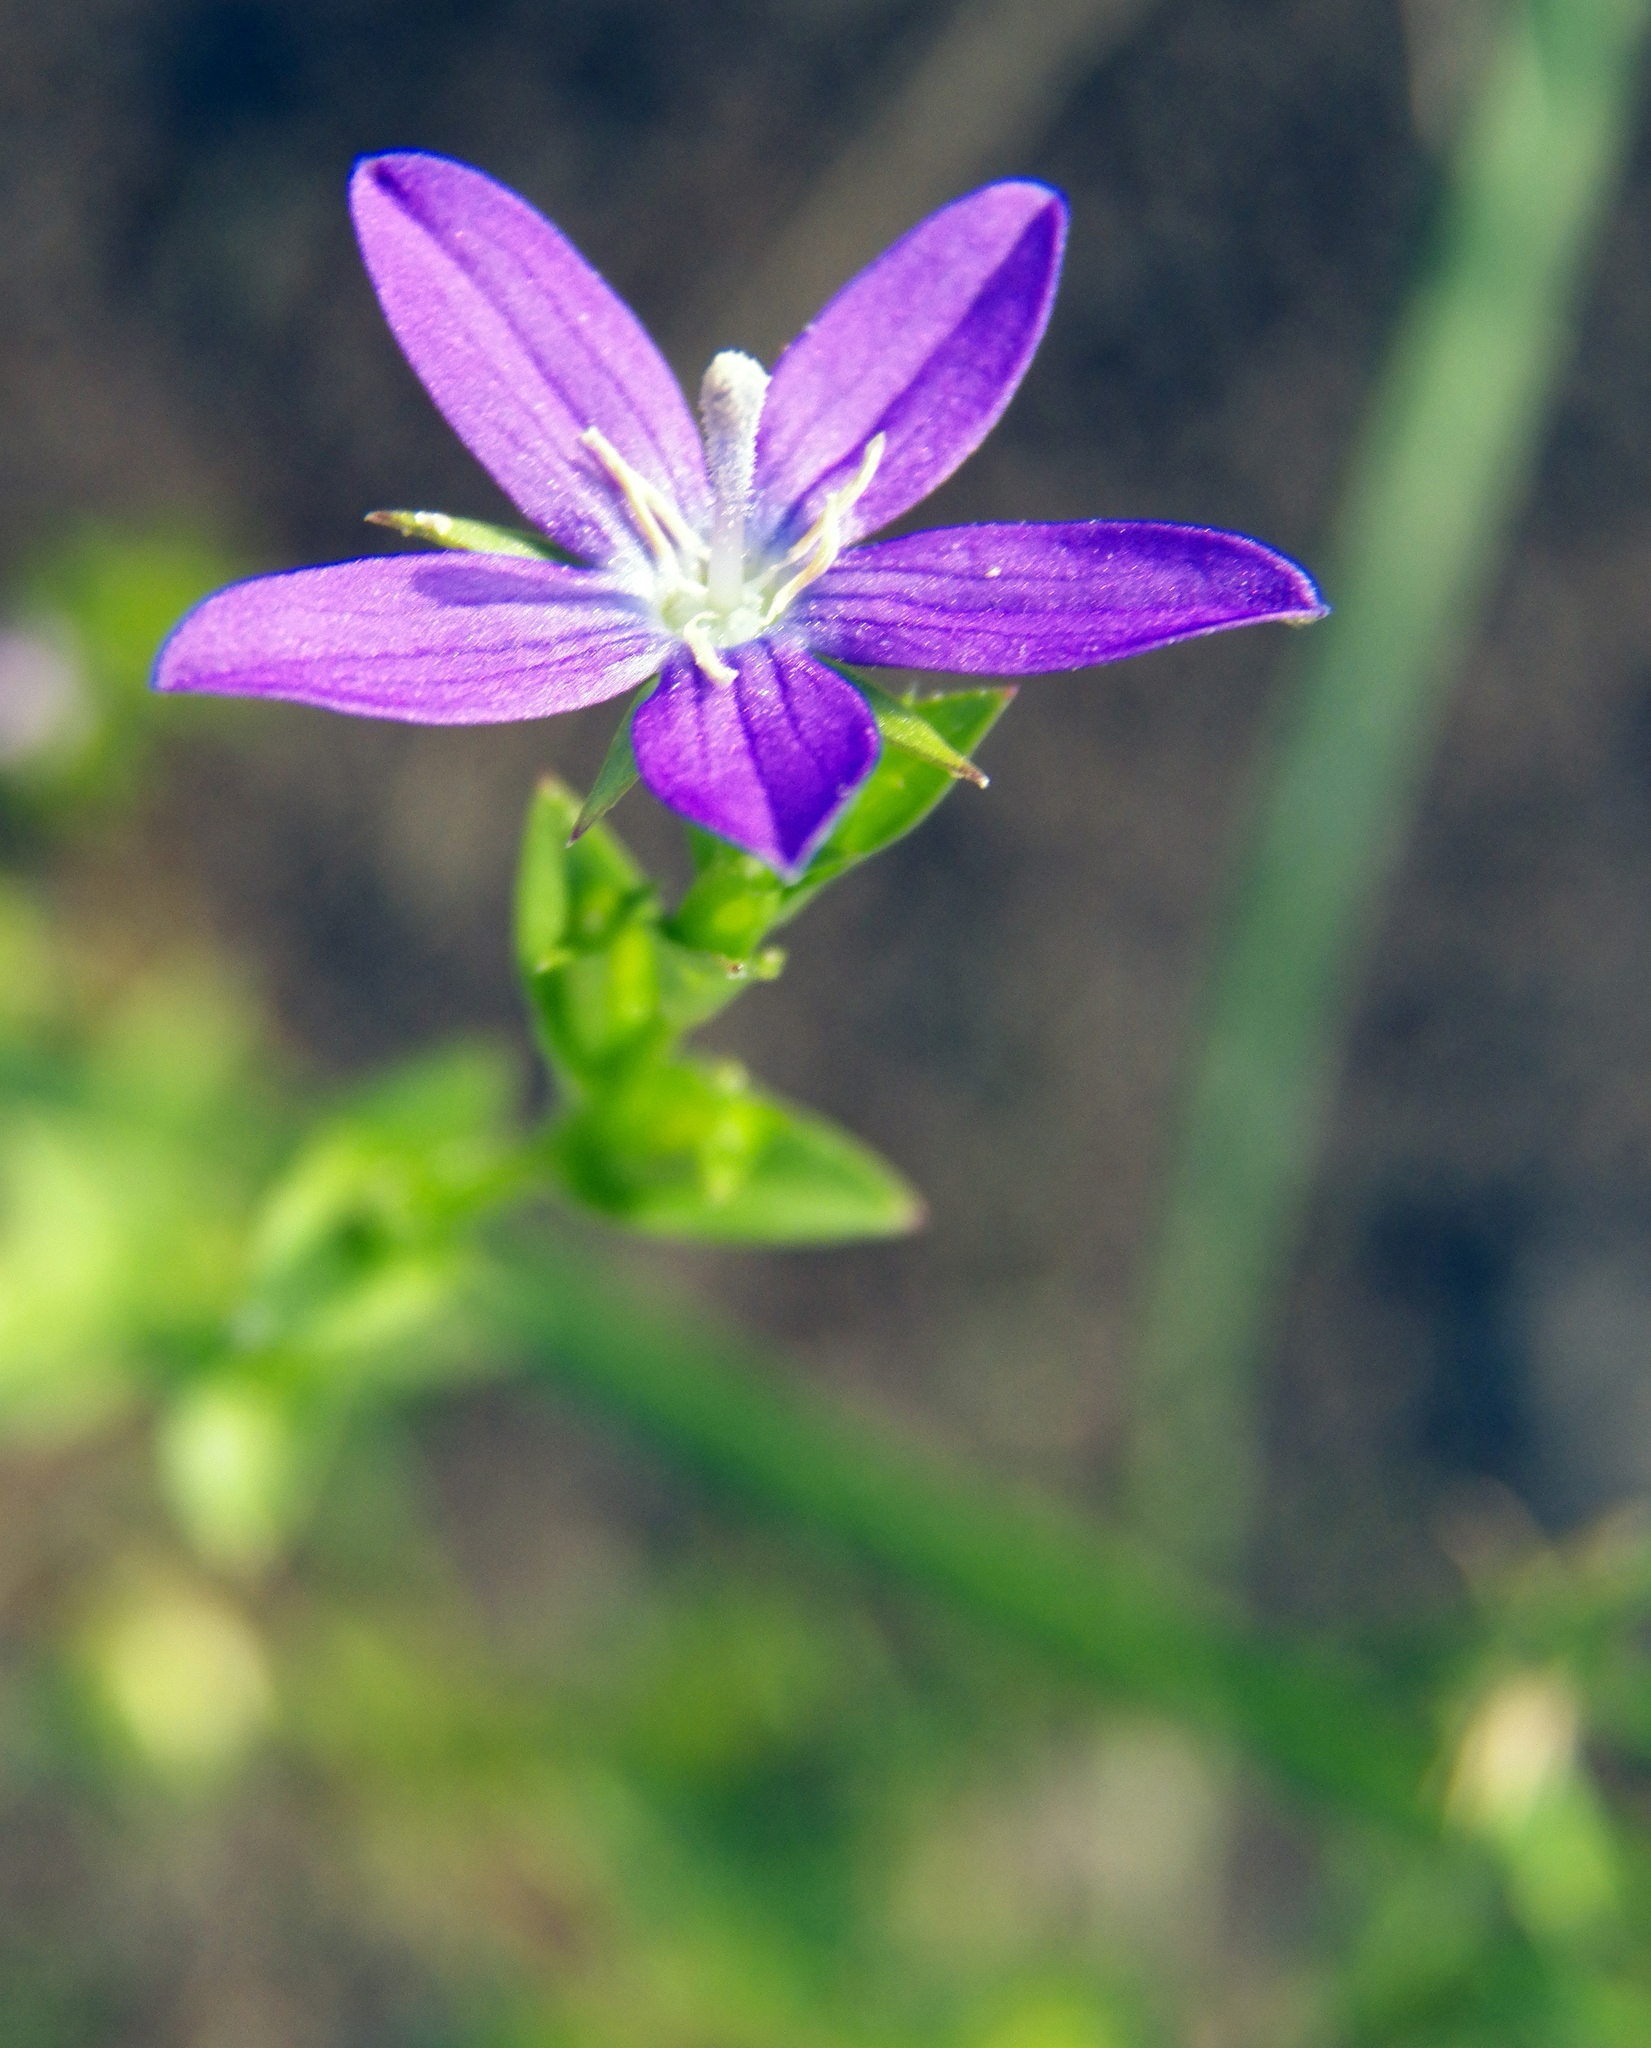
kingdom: Plantae
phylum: Tracheophyta
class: Magnoliopsida
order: Asterales
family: Campanulaceae
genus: Triodanis
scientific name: Triodanis perfoliata
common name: Clasping venus' looking-glass
